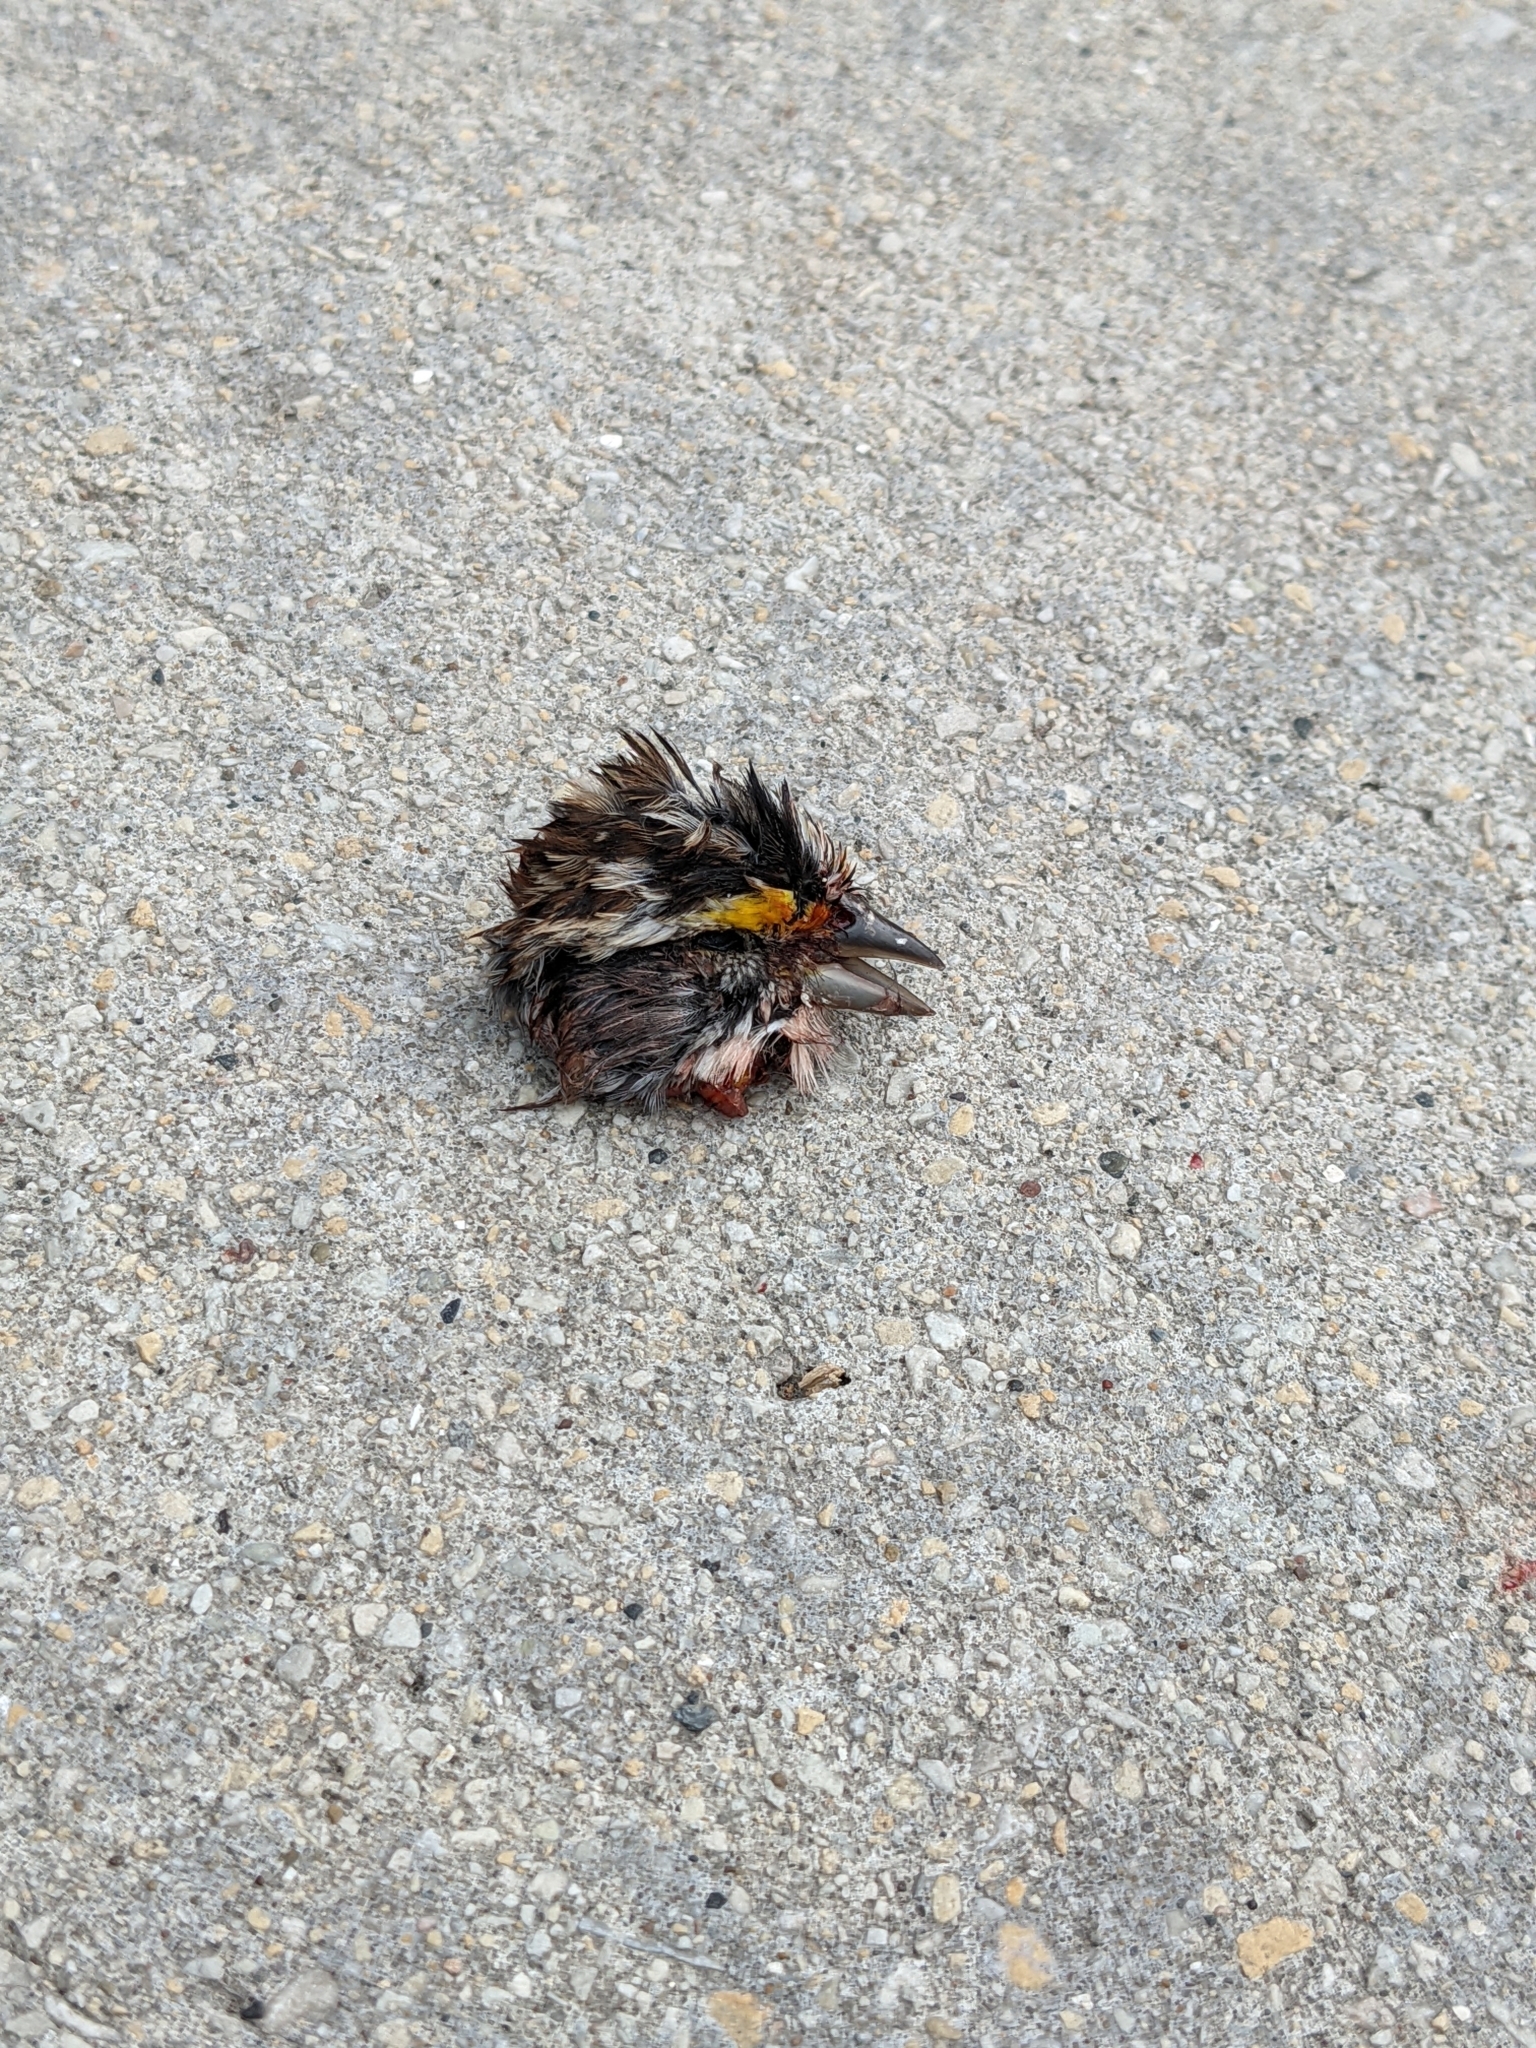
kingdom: Animalia
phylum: Chordata
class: Aves
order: Passeriformes
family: Passerellidae
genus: Zonotrichia
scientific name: Zonotrichia albicollis
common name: White-throated sparrow
